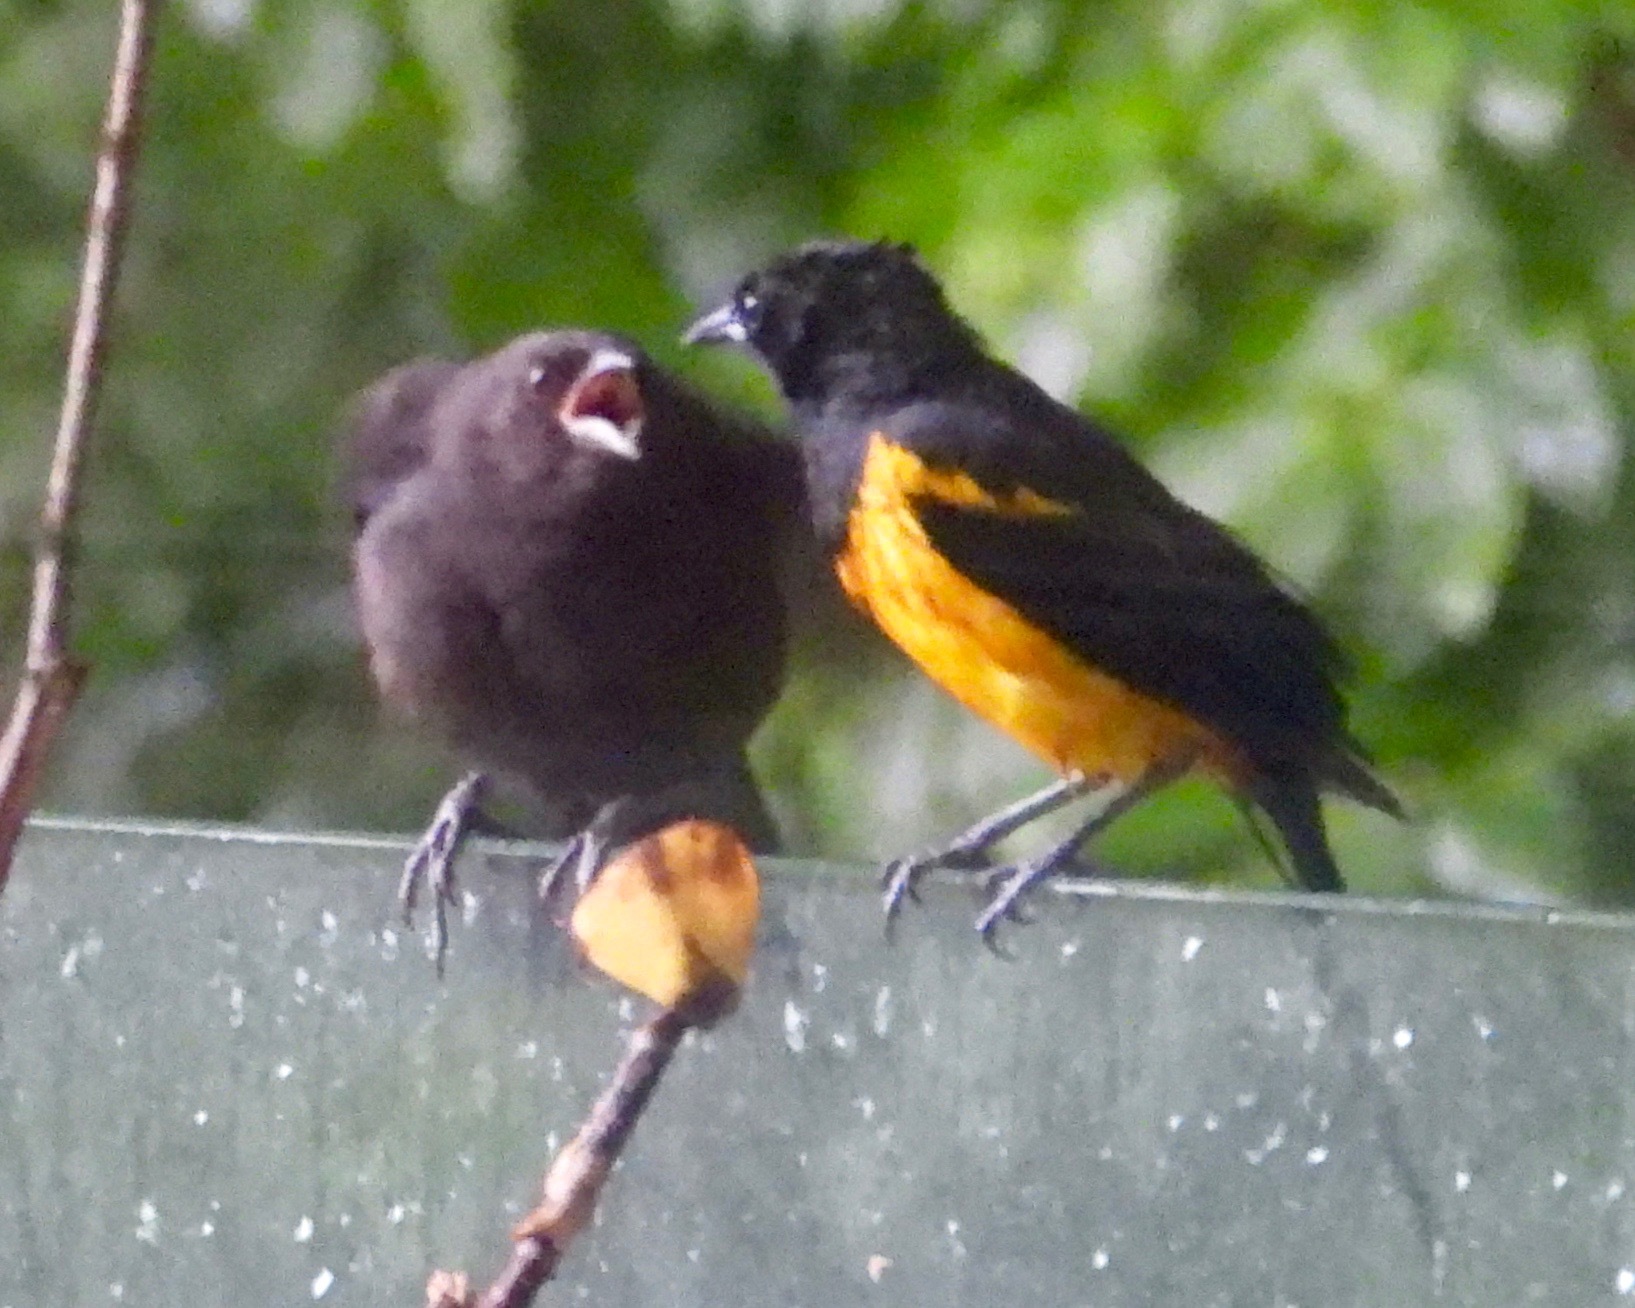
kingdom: Animalia
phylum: Chordata
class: Aves
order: Passeriformes
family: Icteridae
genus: Molothrus
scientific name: Molothrus aeneus
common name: Bronzed cowbird
